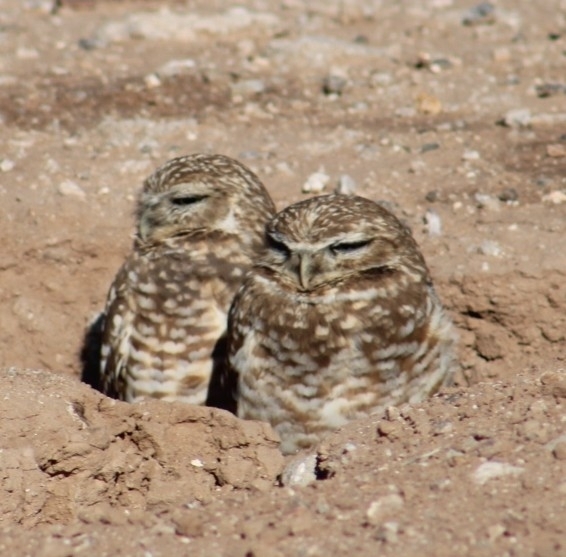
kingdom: Animalia
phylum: Chordata
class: Aves
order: Strigiformes
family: Strigidae
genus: Athene
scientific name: Athene cunicularia
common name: Burrowing owl
